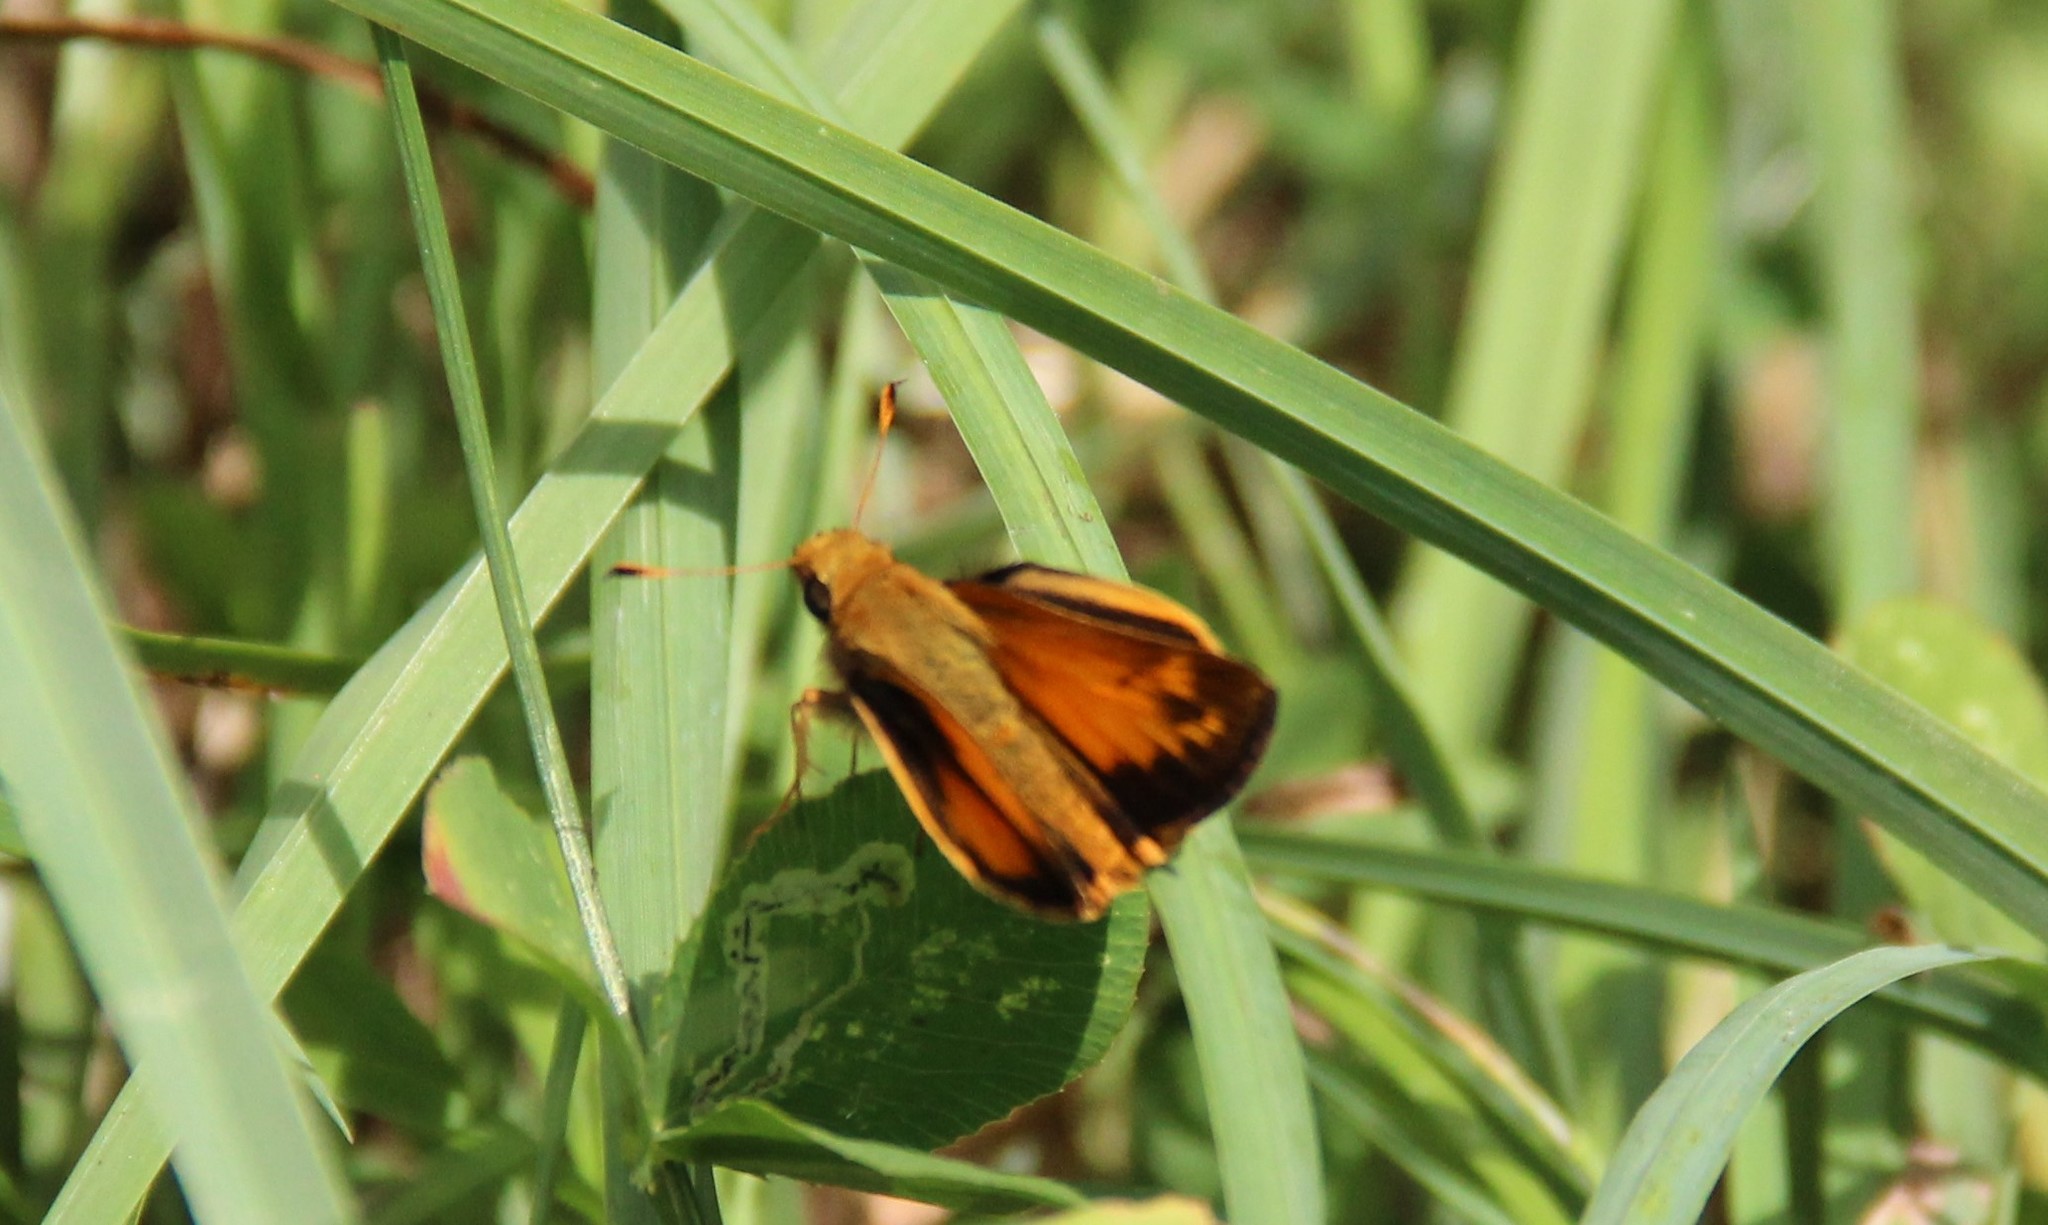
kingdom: Animalia
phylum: Arthropoda
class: Insecta
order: Lepidoptera
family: Hesperiidae
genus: Lon
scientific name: Lon zabulon
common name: Zabulon skipper
